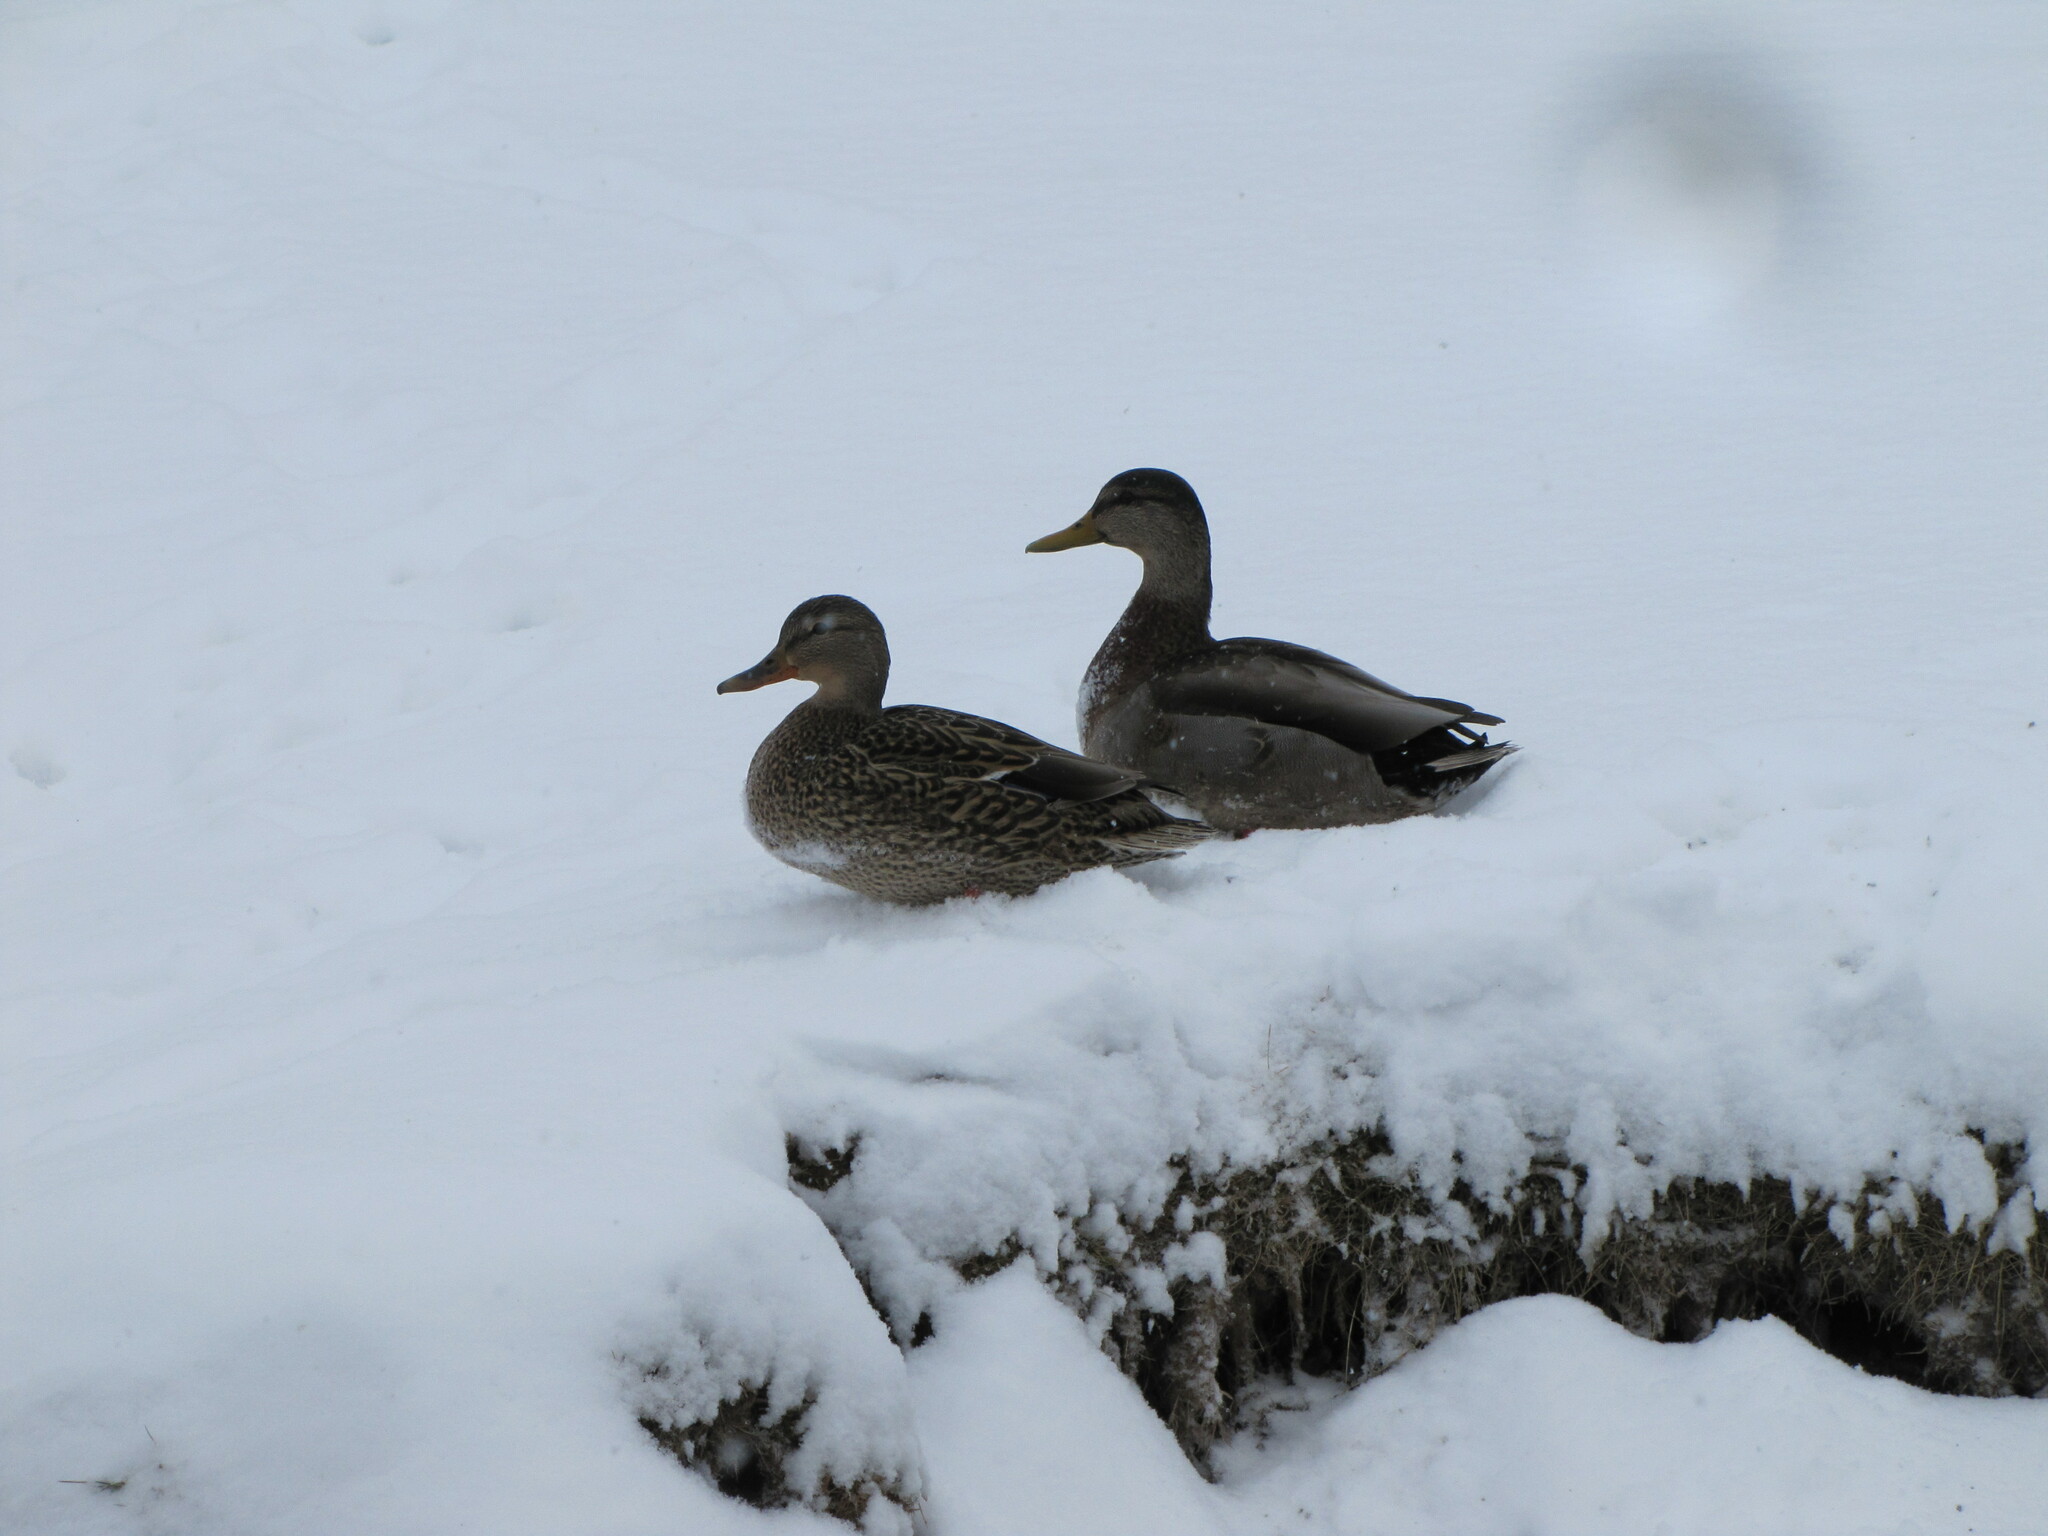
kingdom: Animalia
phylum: Chordata
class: Aves
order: Anseriformes
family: Anatidae
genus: Anas
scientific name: Anas
